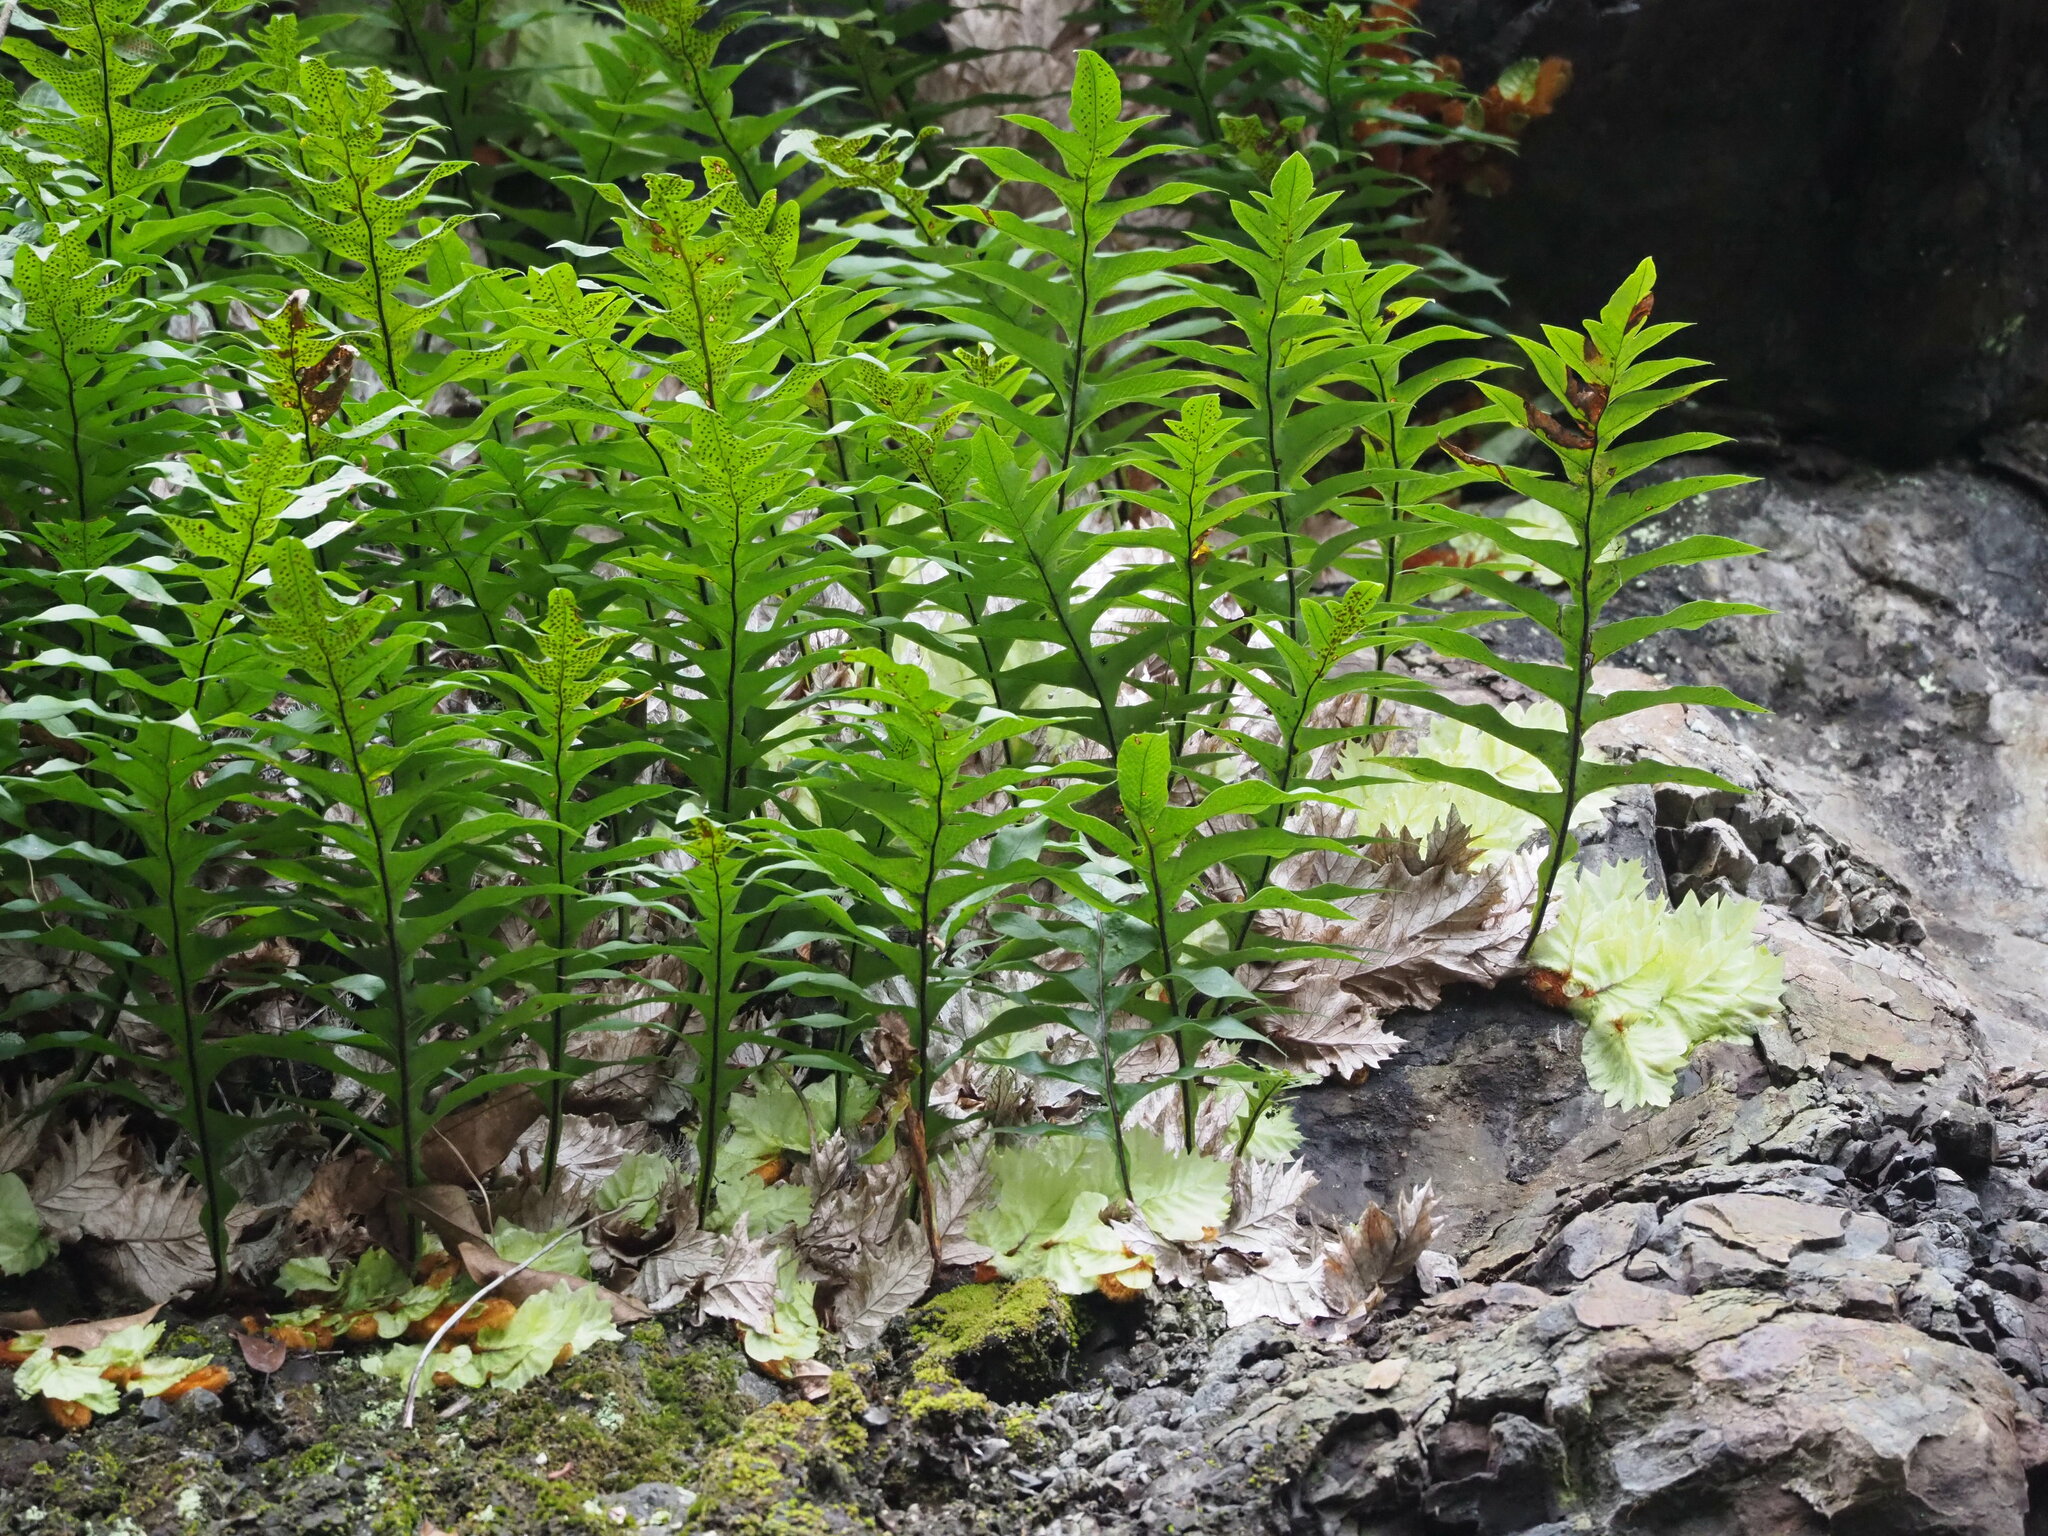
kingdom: Plantae
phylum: Tracheophyta
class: Polypodiopsida
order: Polypodiales
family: Polypodiaceae
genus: Drynaria
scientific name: Drynaria roosii
